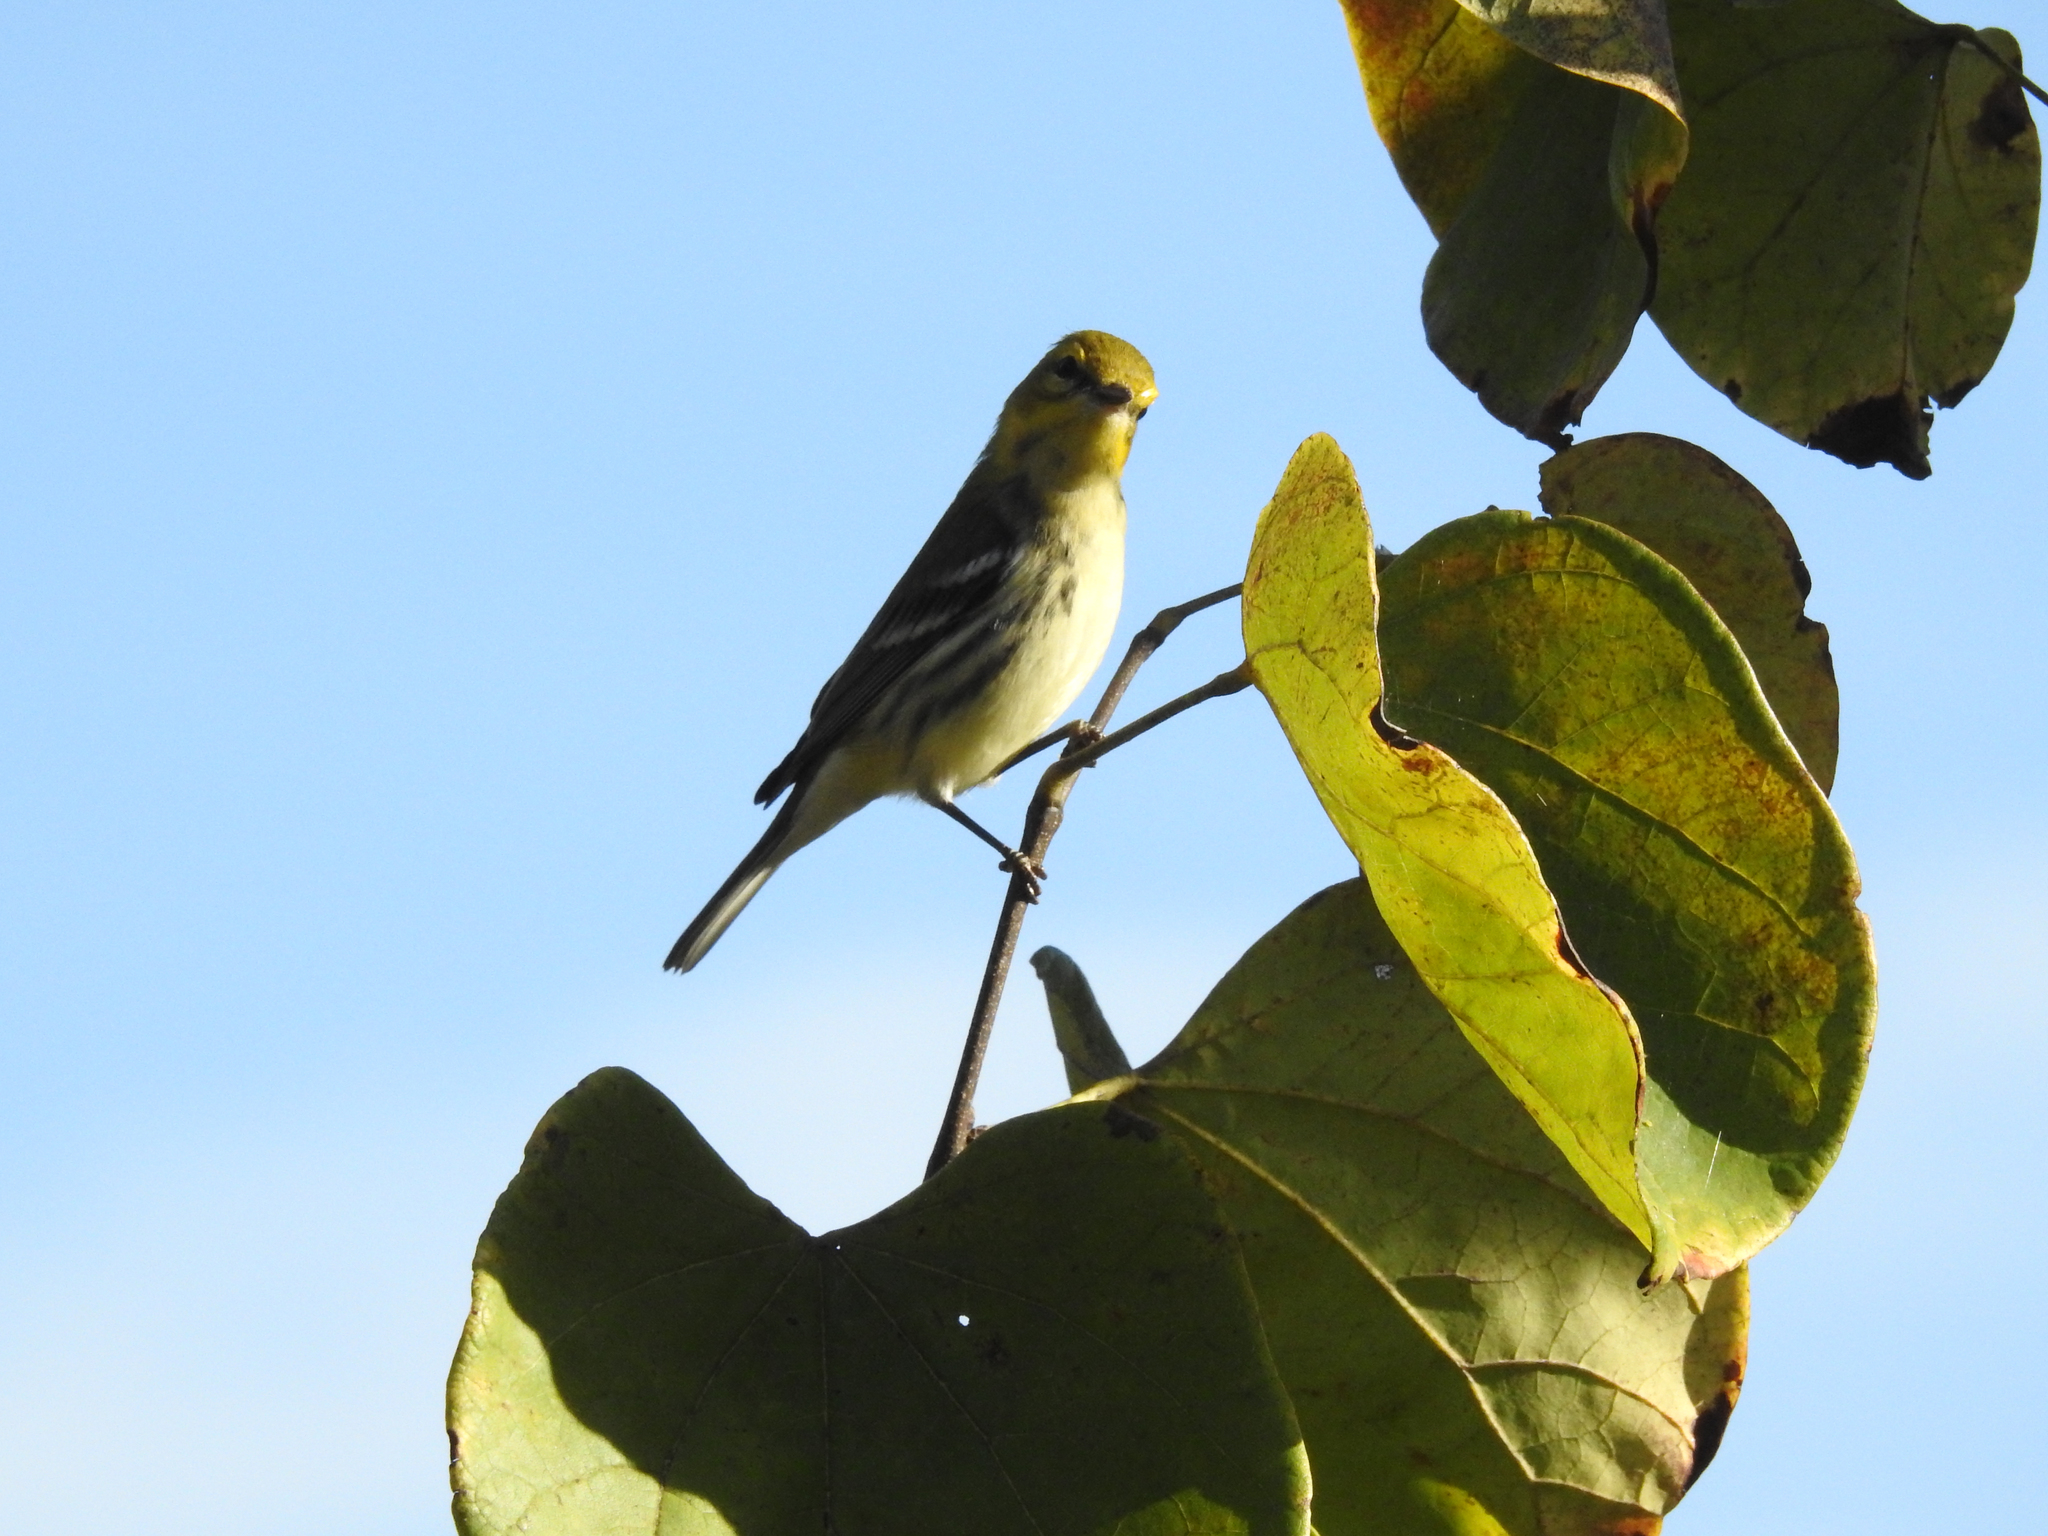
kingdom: Animalia
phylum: Chordata
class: Aves
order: Passeriformes
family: Parulidae
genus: Setophaga
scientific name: Setophaga virens
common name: Black-throated green warbler
